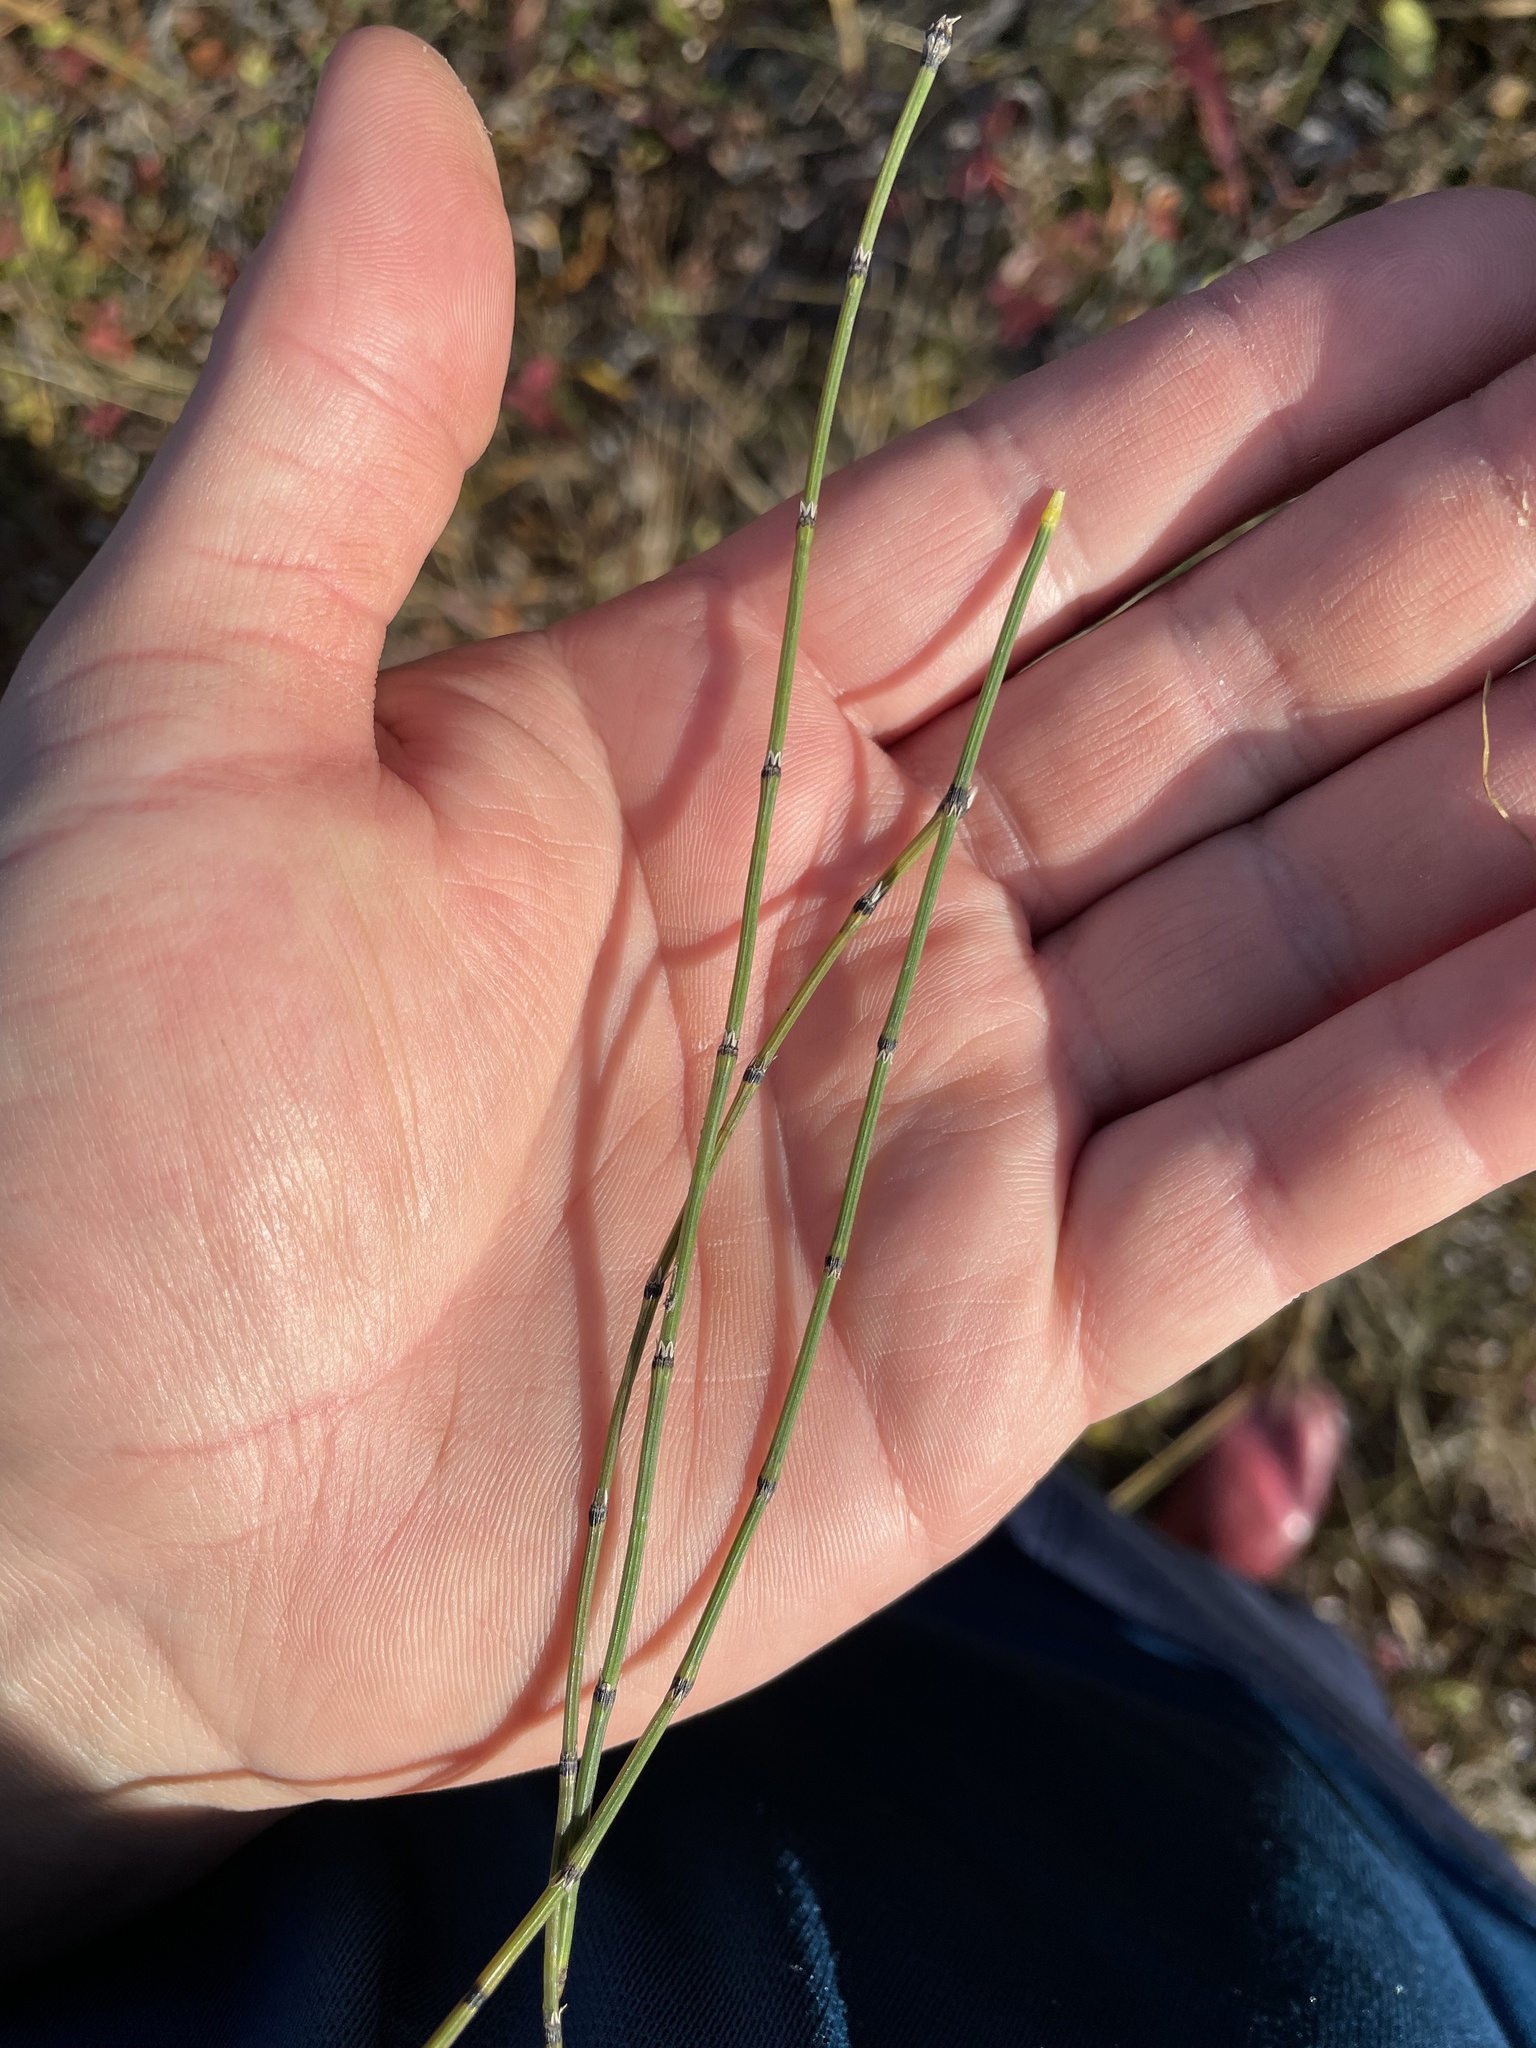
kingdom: Plantae
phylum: Tracheophyta
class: Polypodiopsida
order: Equisetales
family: Equisetaceae
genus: Equisetum
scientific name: Equisetum variegatum
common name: Variegated horsetail
